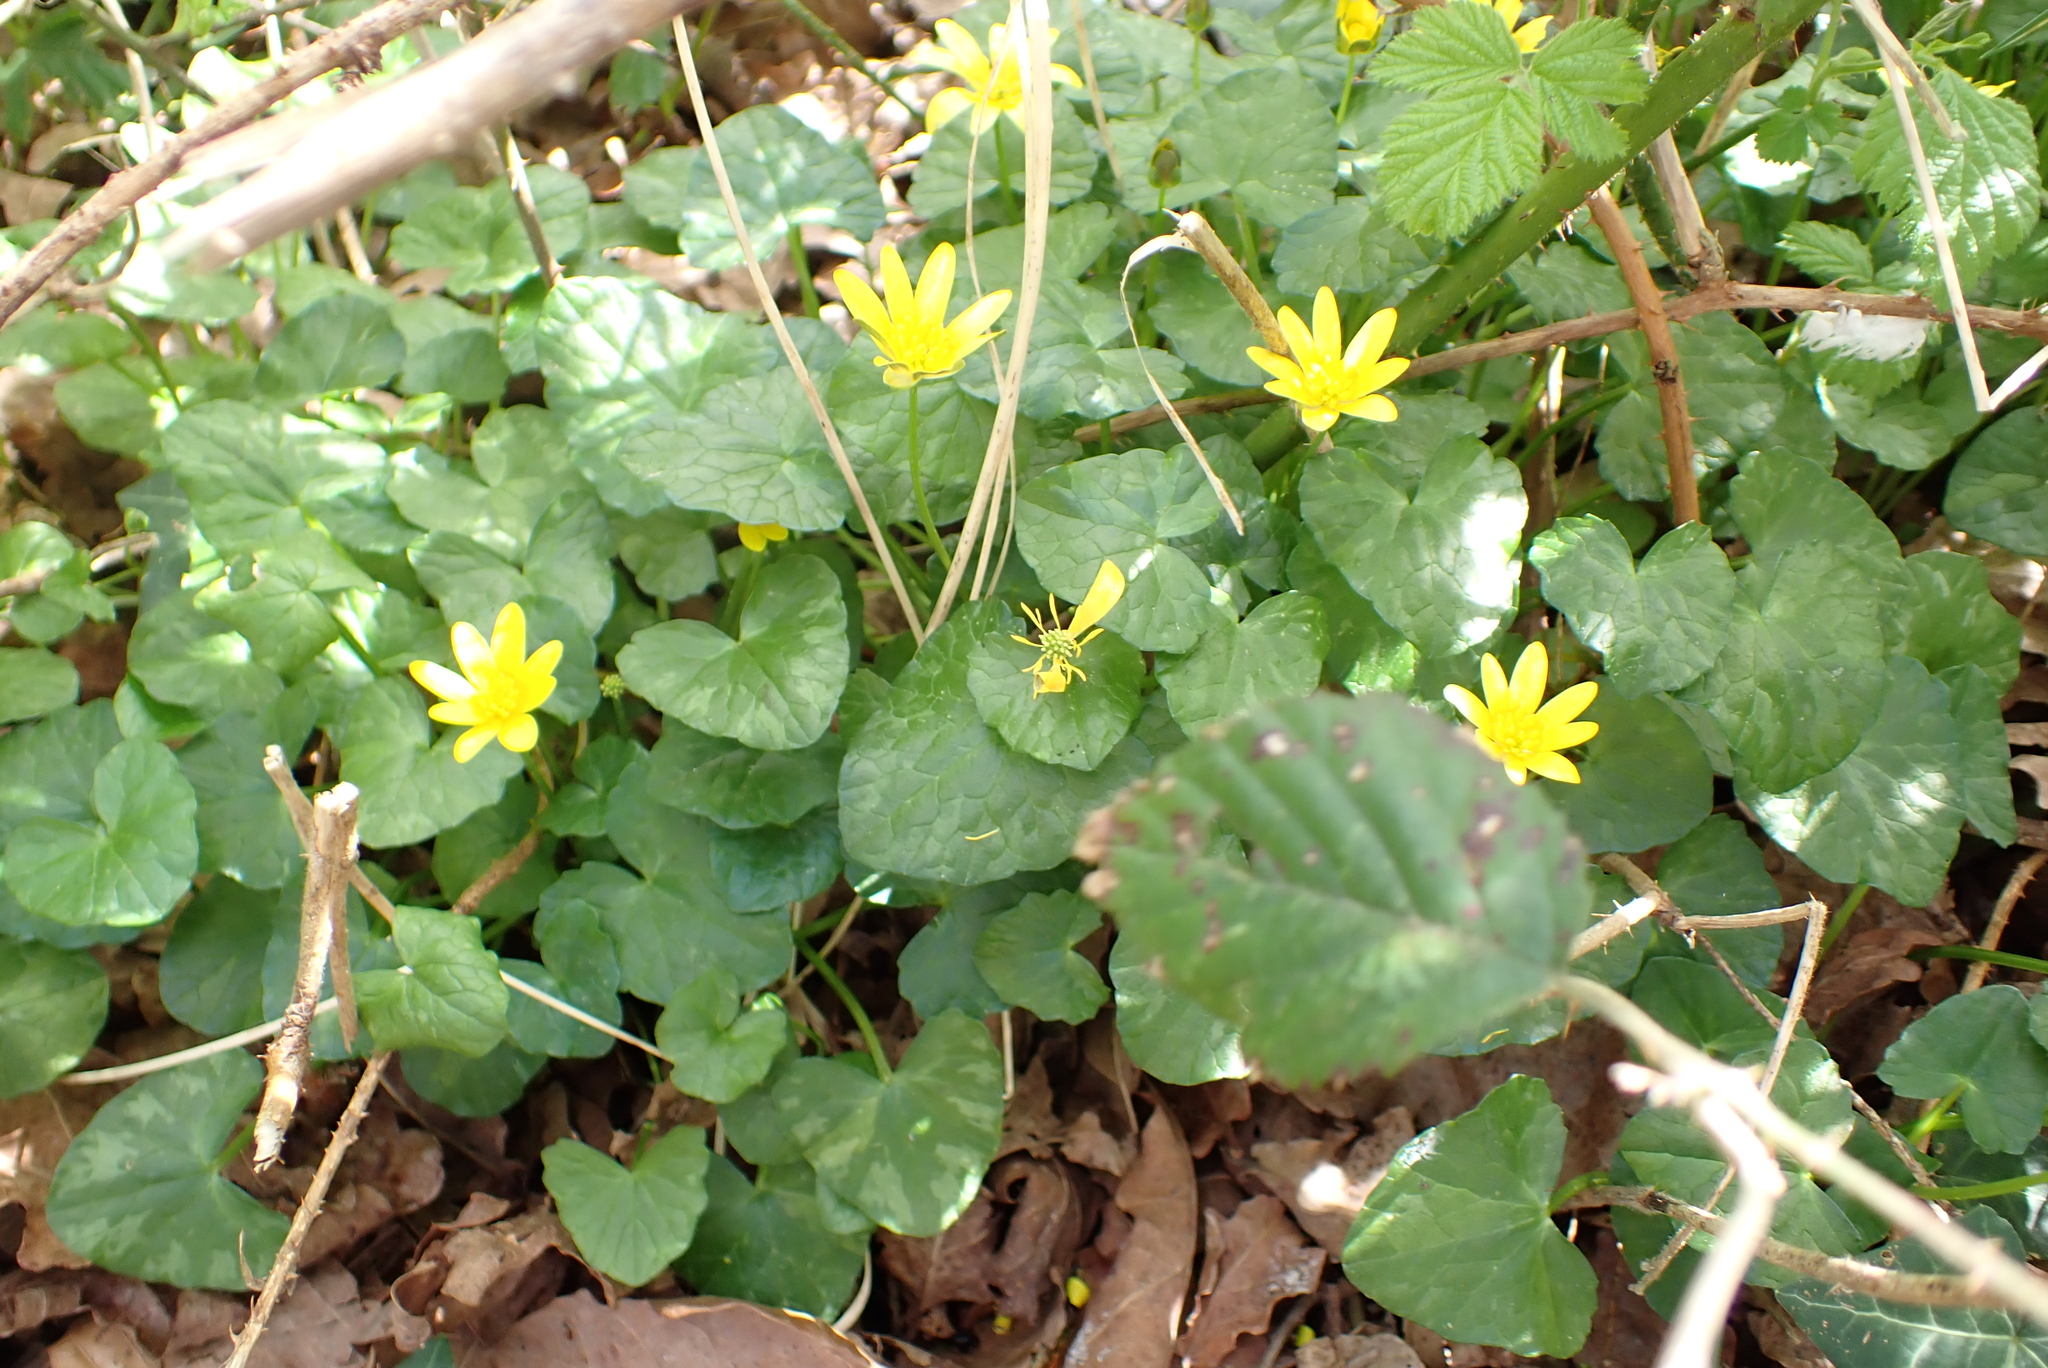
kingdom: Plantae
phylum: Tracheophyta
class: Magnoliopsida
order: Ranunculales
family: Ranunculaceae
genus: Ficaria
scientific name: Ficaria verna
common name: Lesser celandine
